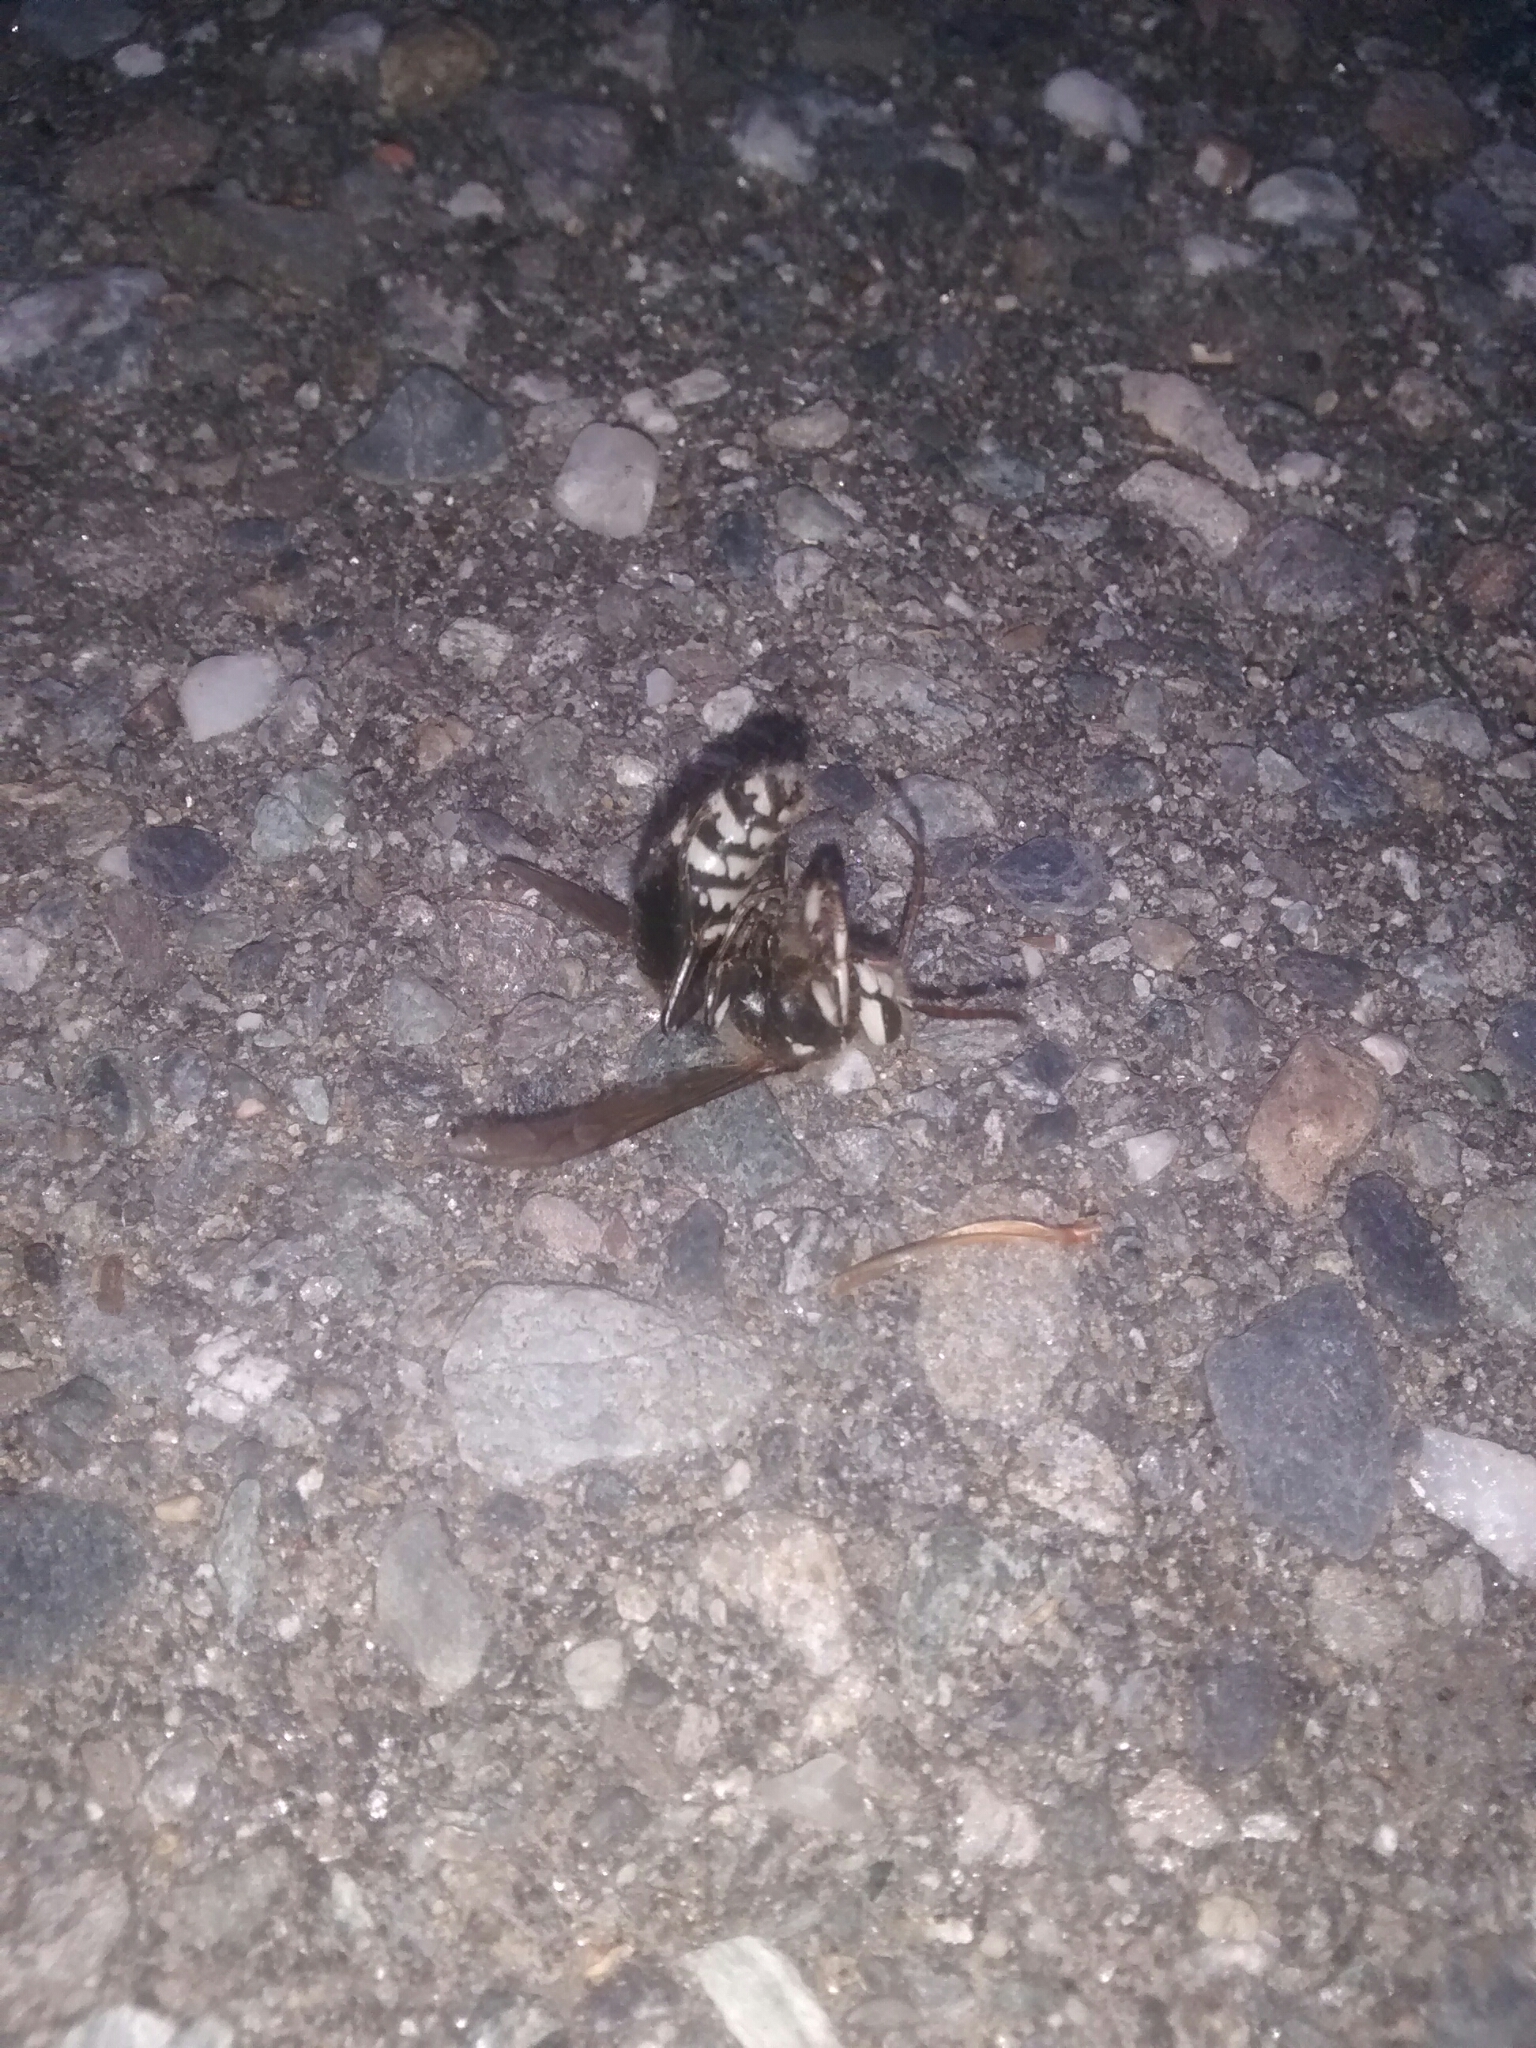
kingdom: Animalia
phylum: Arthropoda
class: Insecta
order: Hymenoptera
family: Vespidae
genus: Dolichovespula
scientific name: Dolichovespula maculata
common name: Bald-faced hornet
